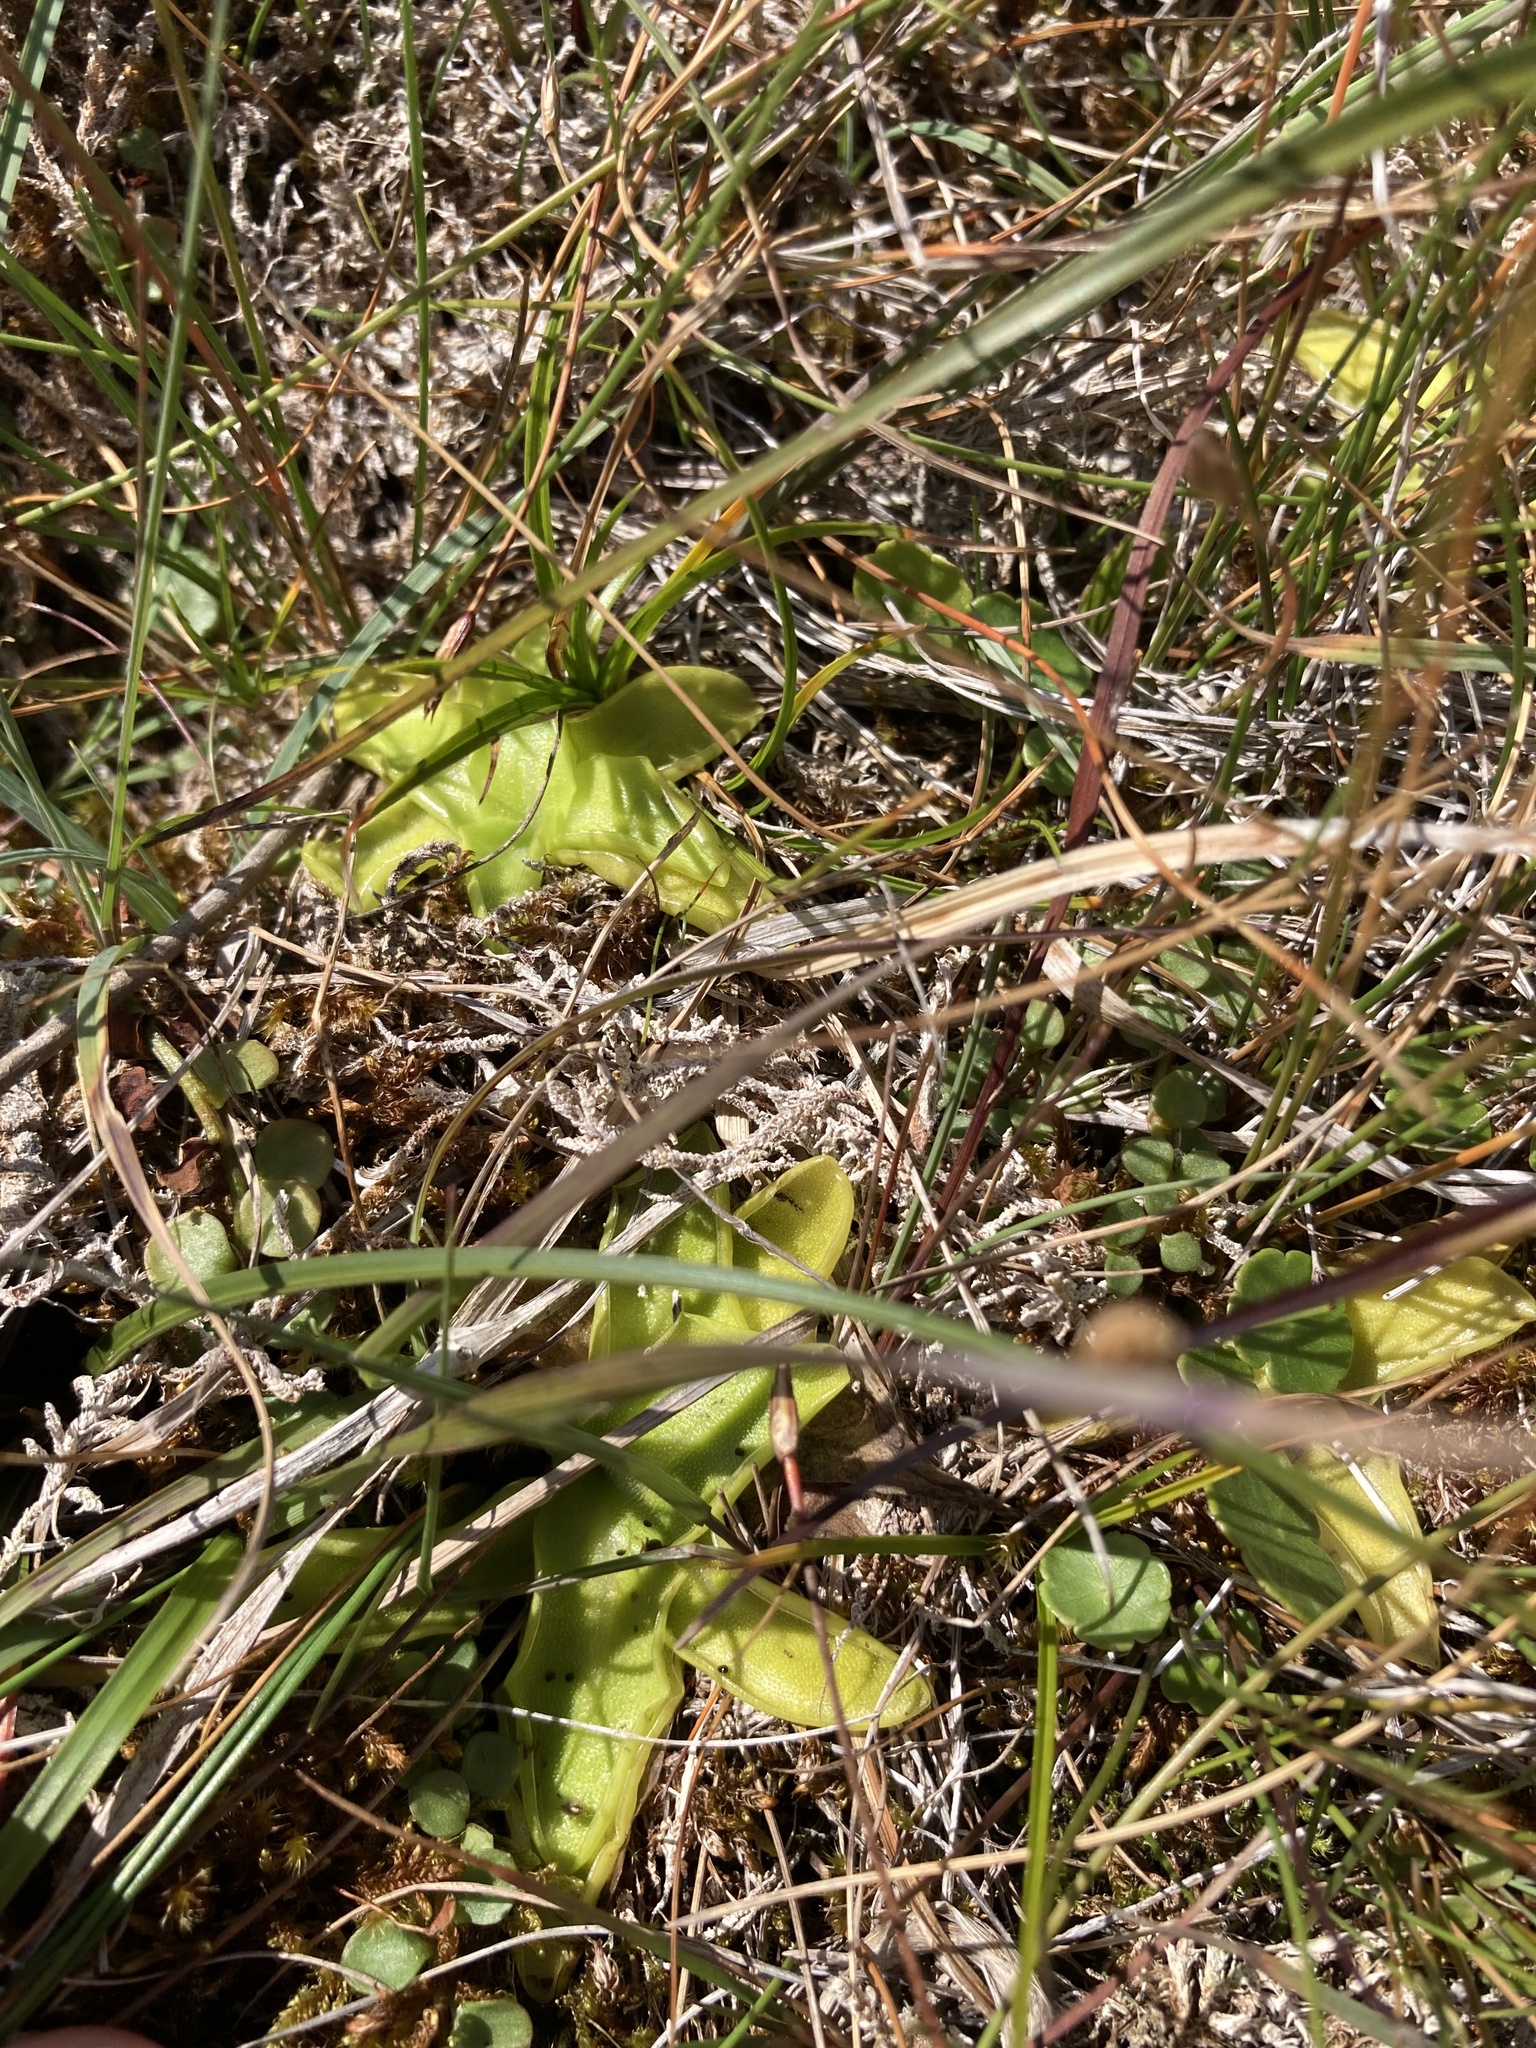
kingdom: Plantae
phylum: Tracheophyta
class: Magnoliopsida
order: Lamiales
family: Lentibulariaceae
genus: Pinguicula
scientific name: Pinguicula vulgaris
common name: Common butterwort
